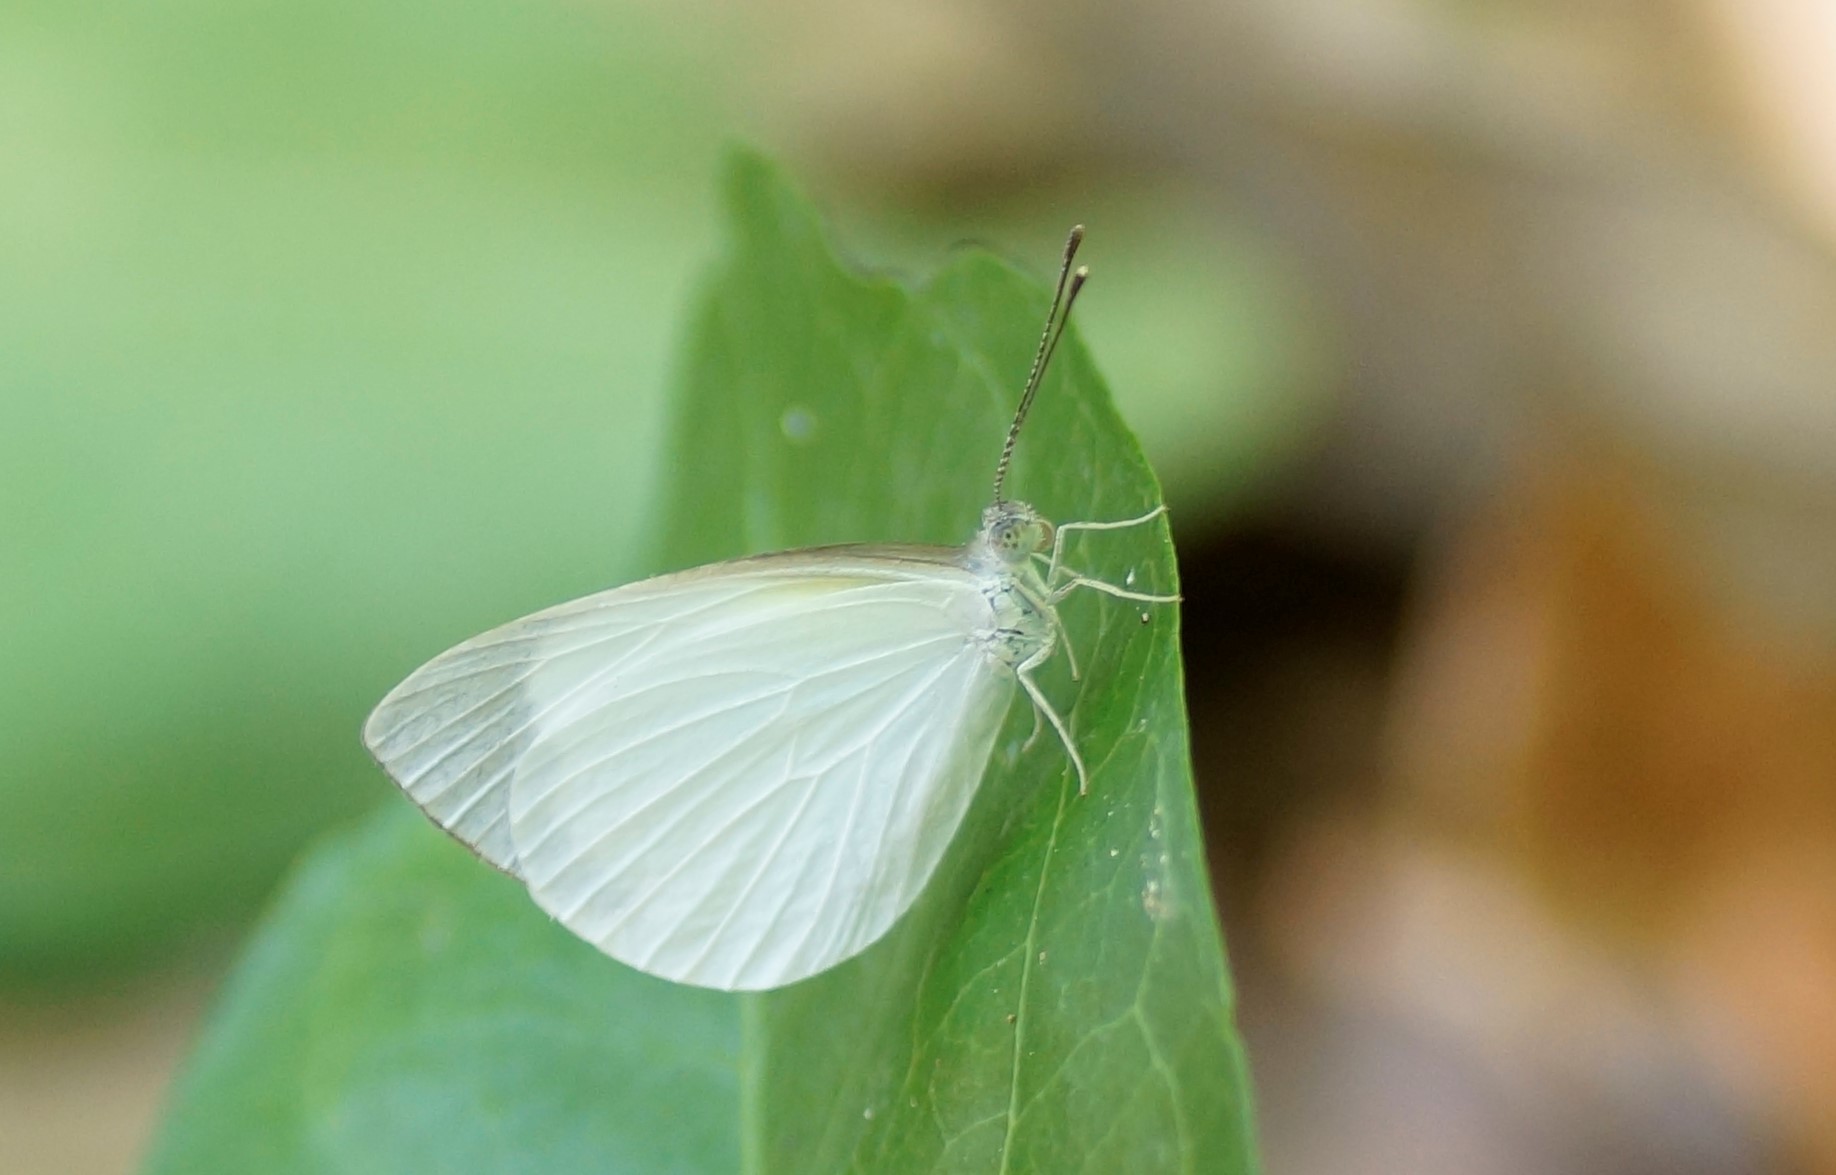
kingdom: Animalia
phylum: Arthropoda
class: Insecta
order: Lepidoptera
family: Pieridae
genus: Elodina
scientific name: Elodina walkeri
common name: Small pearl-white
